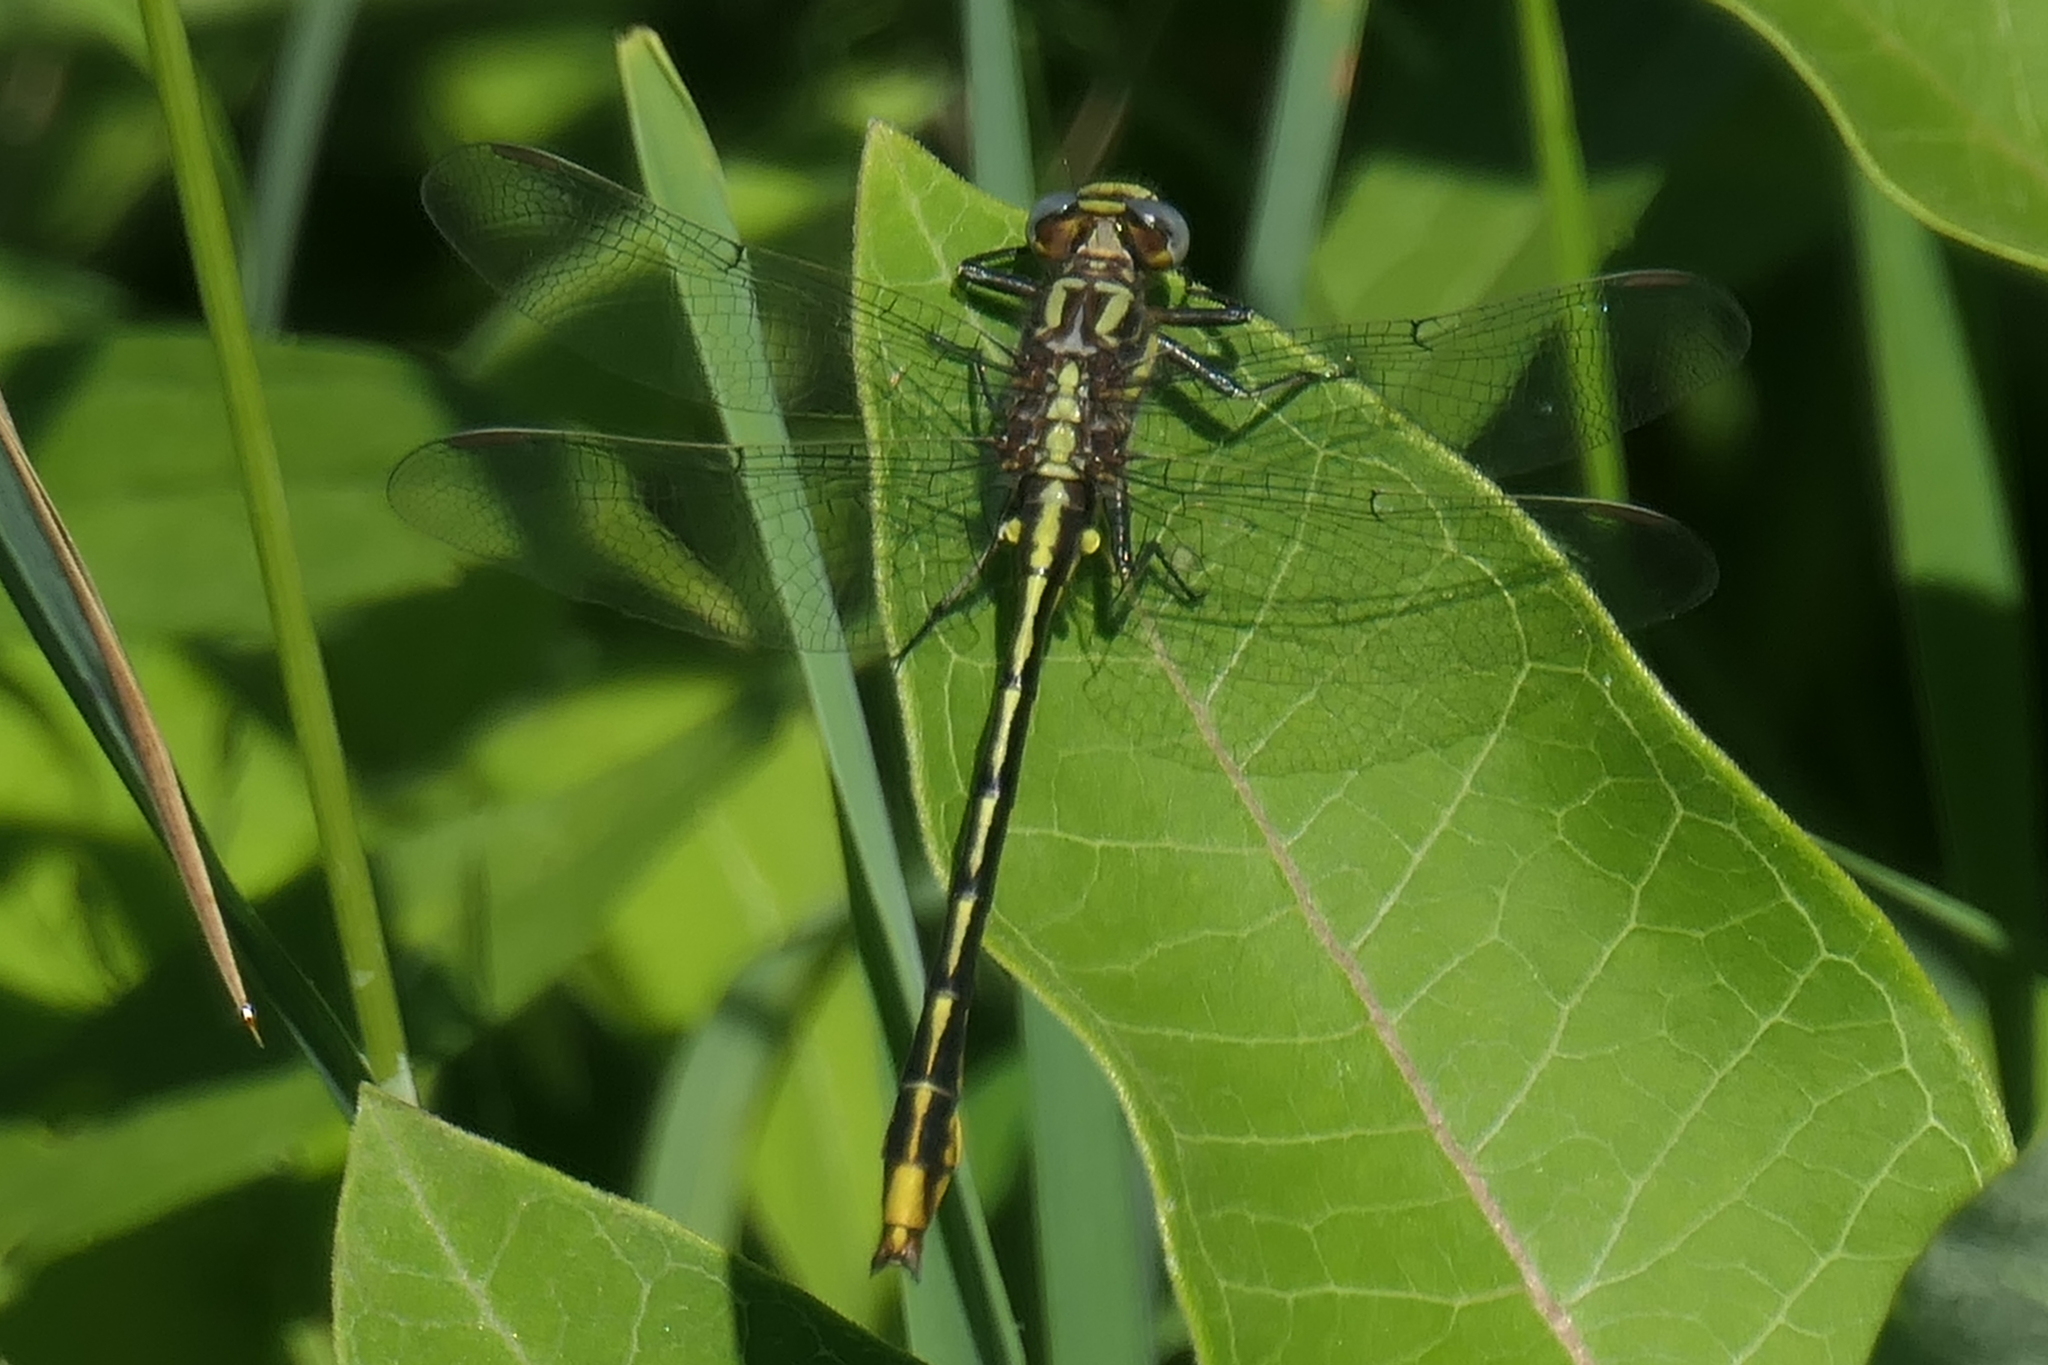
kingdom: Animalia
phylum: Arthropoda
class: Insecta
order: Odonata
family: Gomphidae
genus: Phanogomphus
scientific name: Phanogomphus exilis
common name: Lancet clubtail
